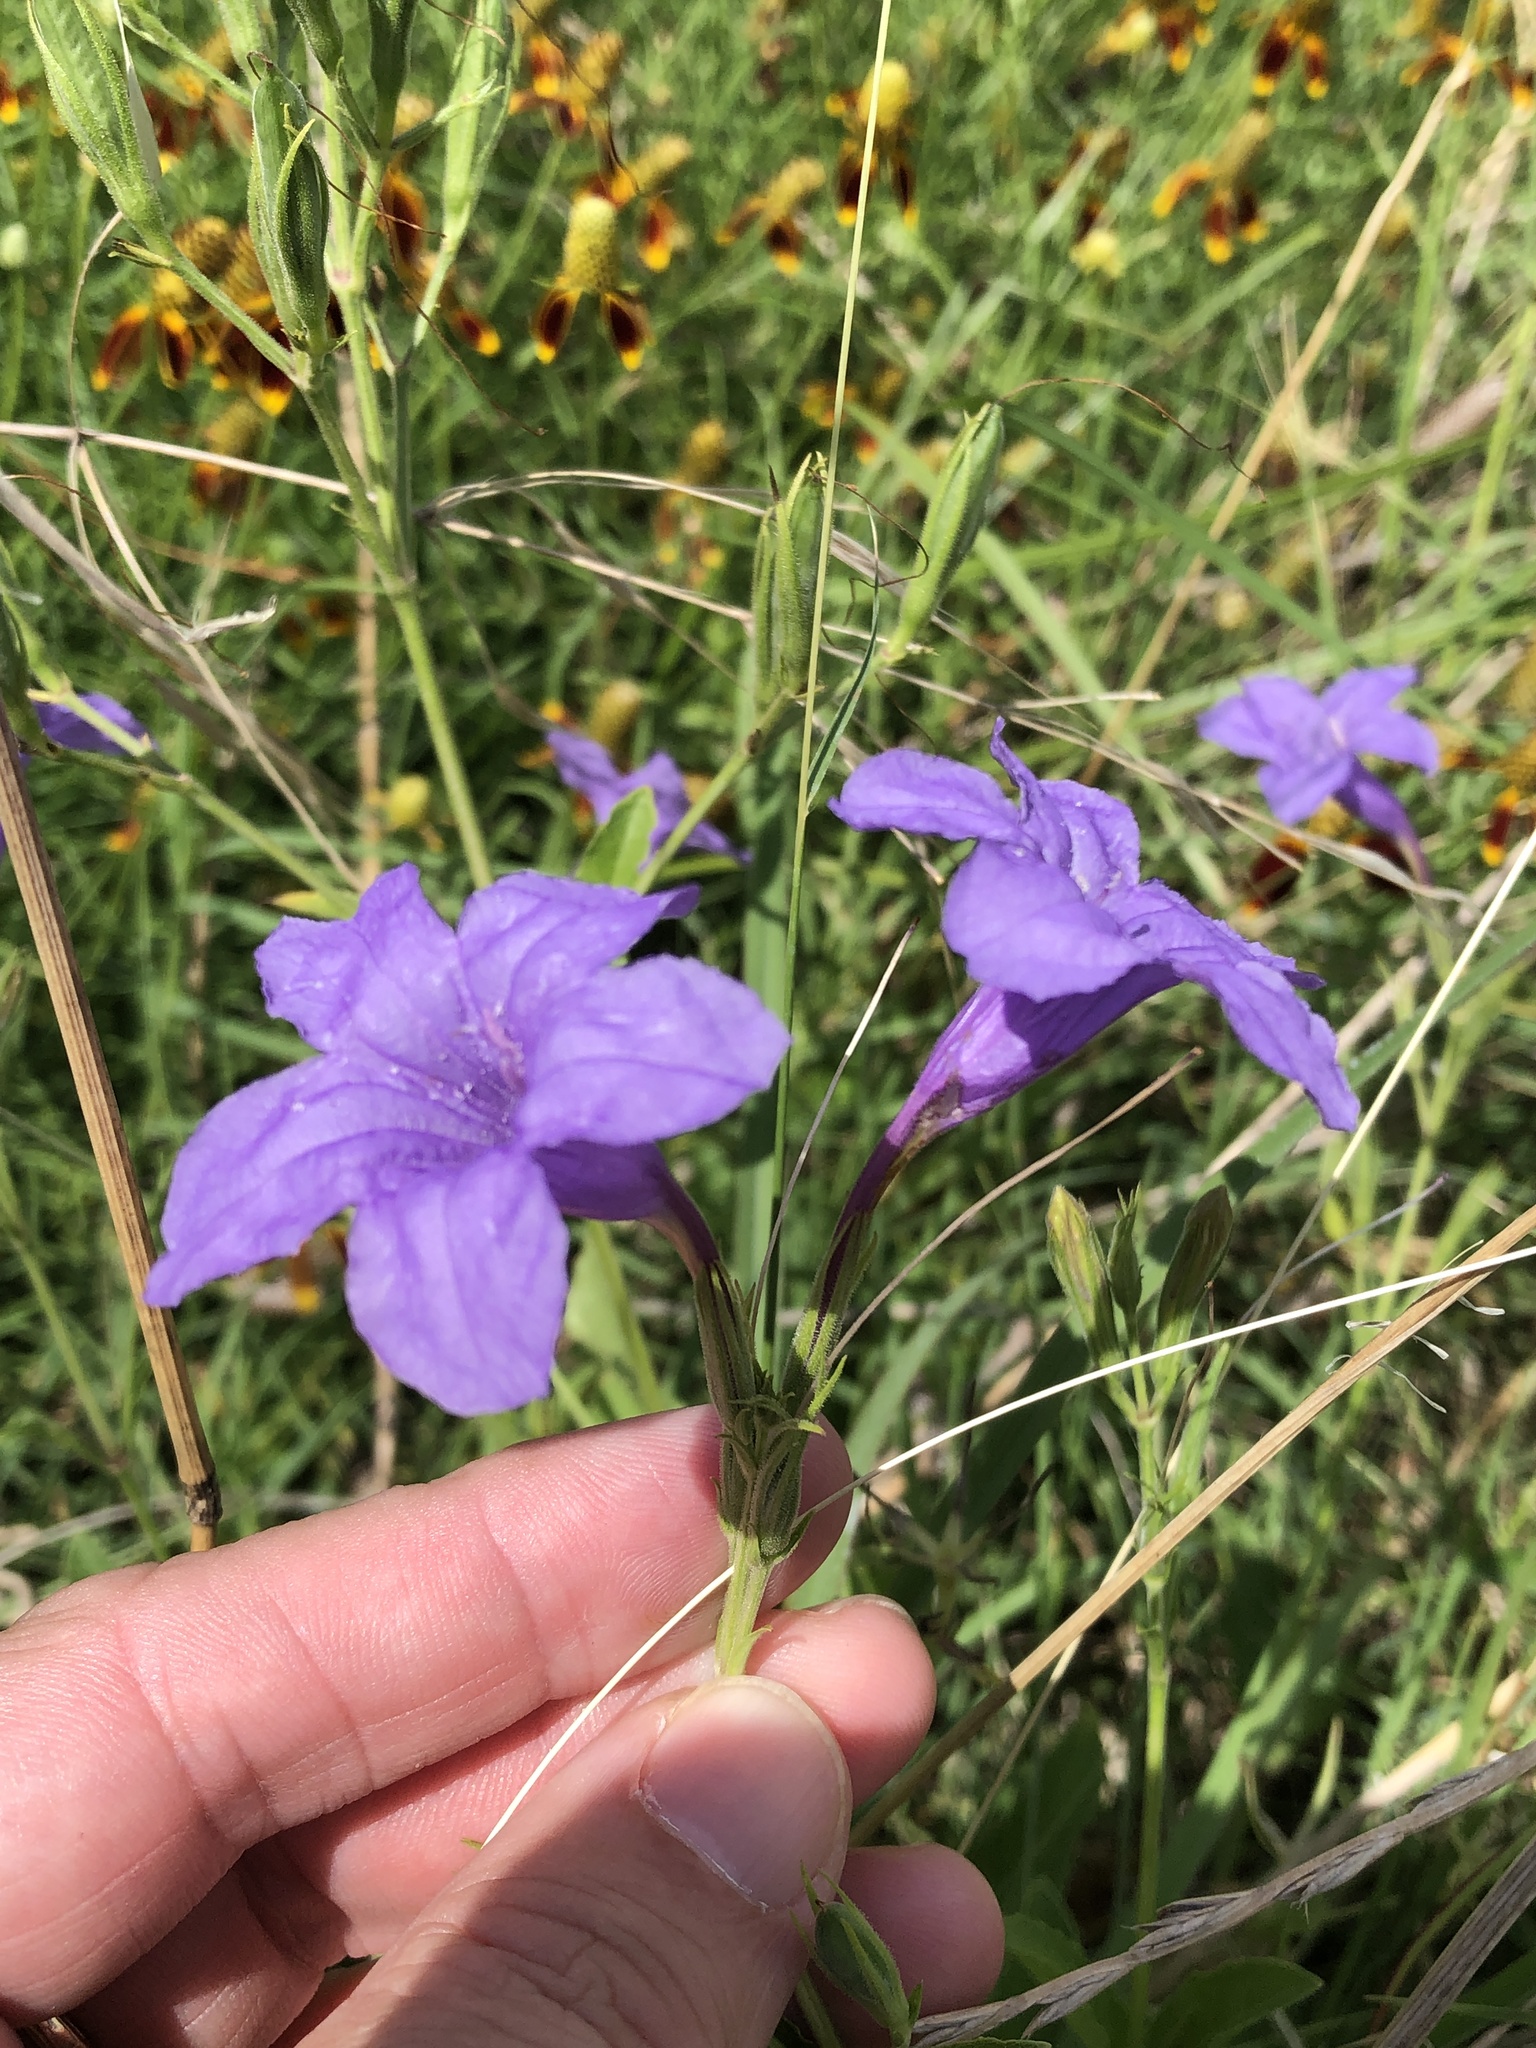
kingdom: Plantae
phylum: Tracheophyta
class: Magnoliopsida
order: Lamiales
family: Acanthaceae
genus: Ruellia
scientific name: Ruellia ciliatiflora
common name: Hairyflower wild petunia
